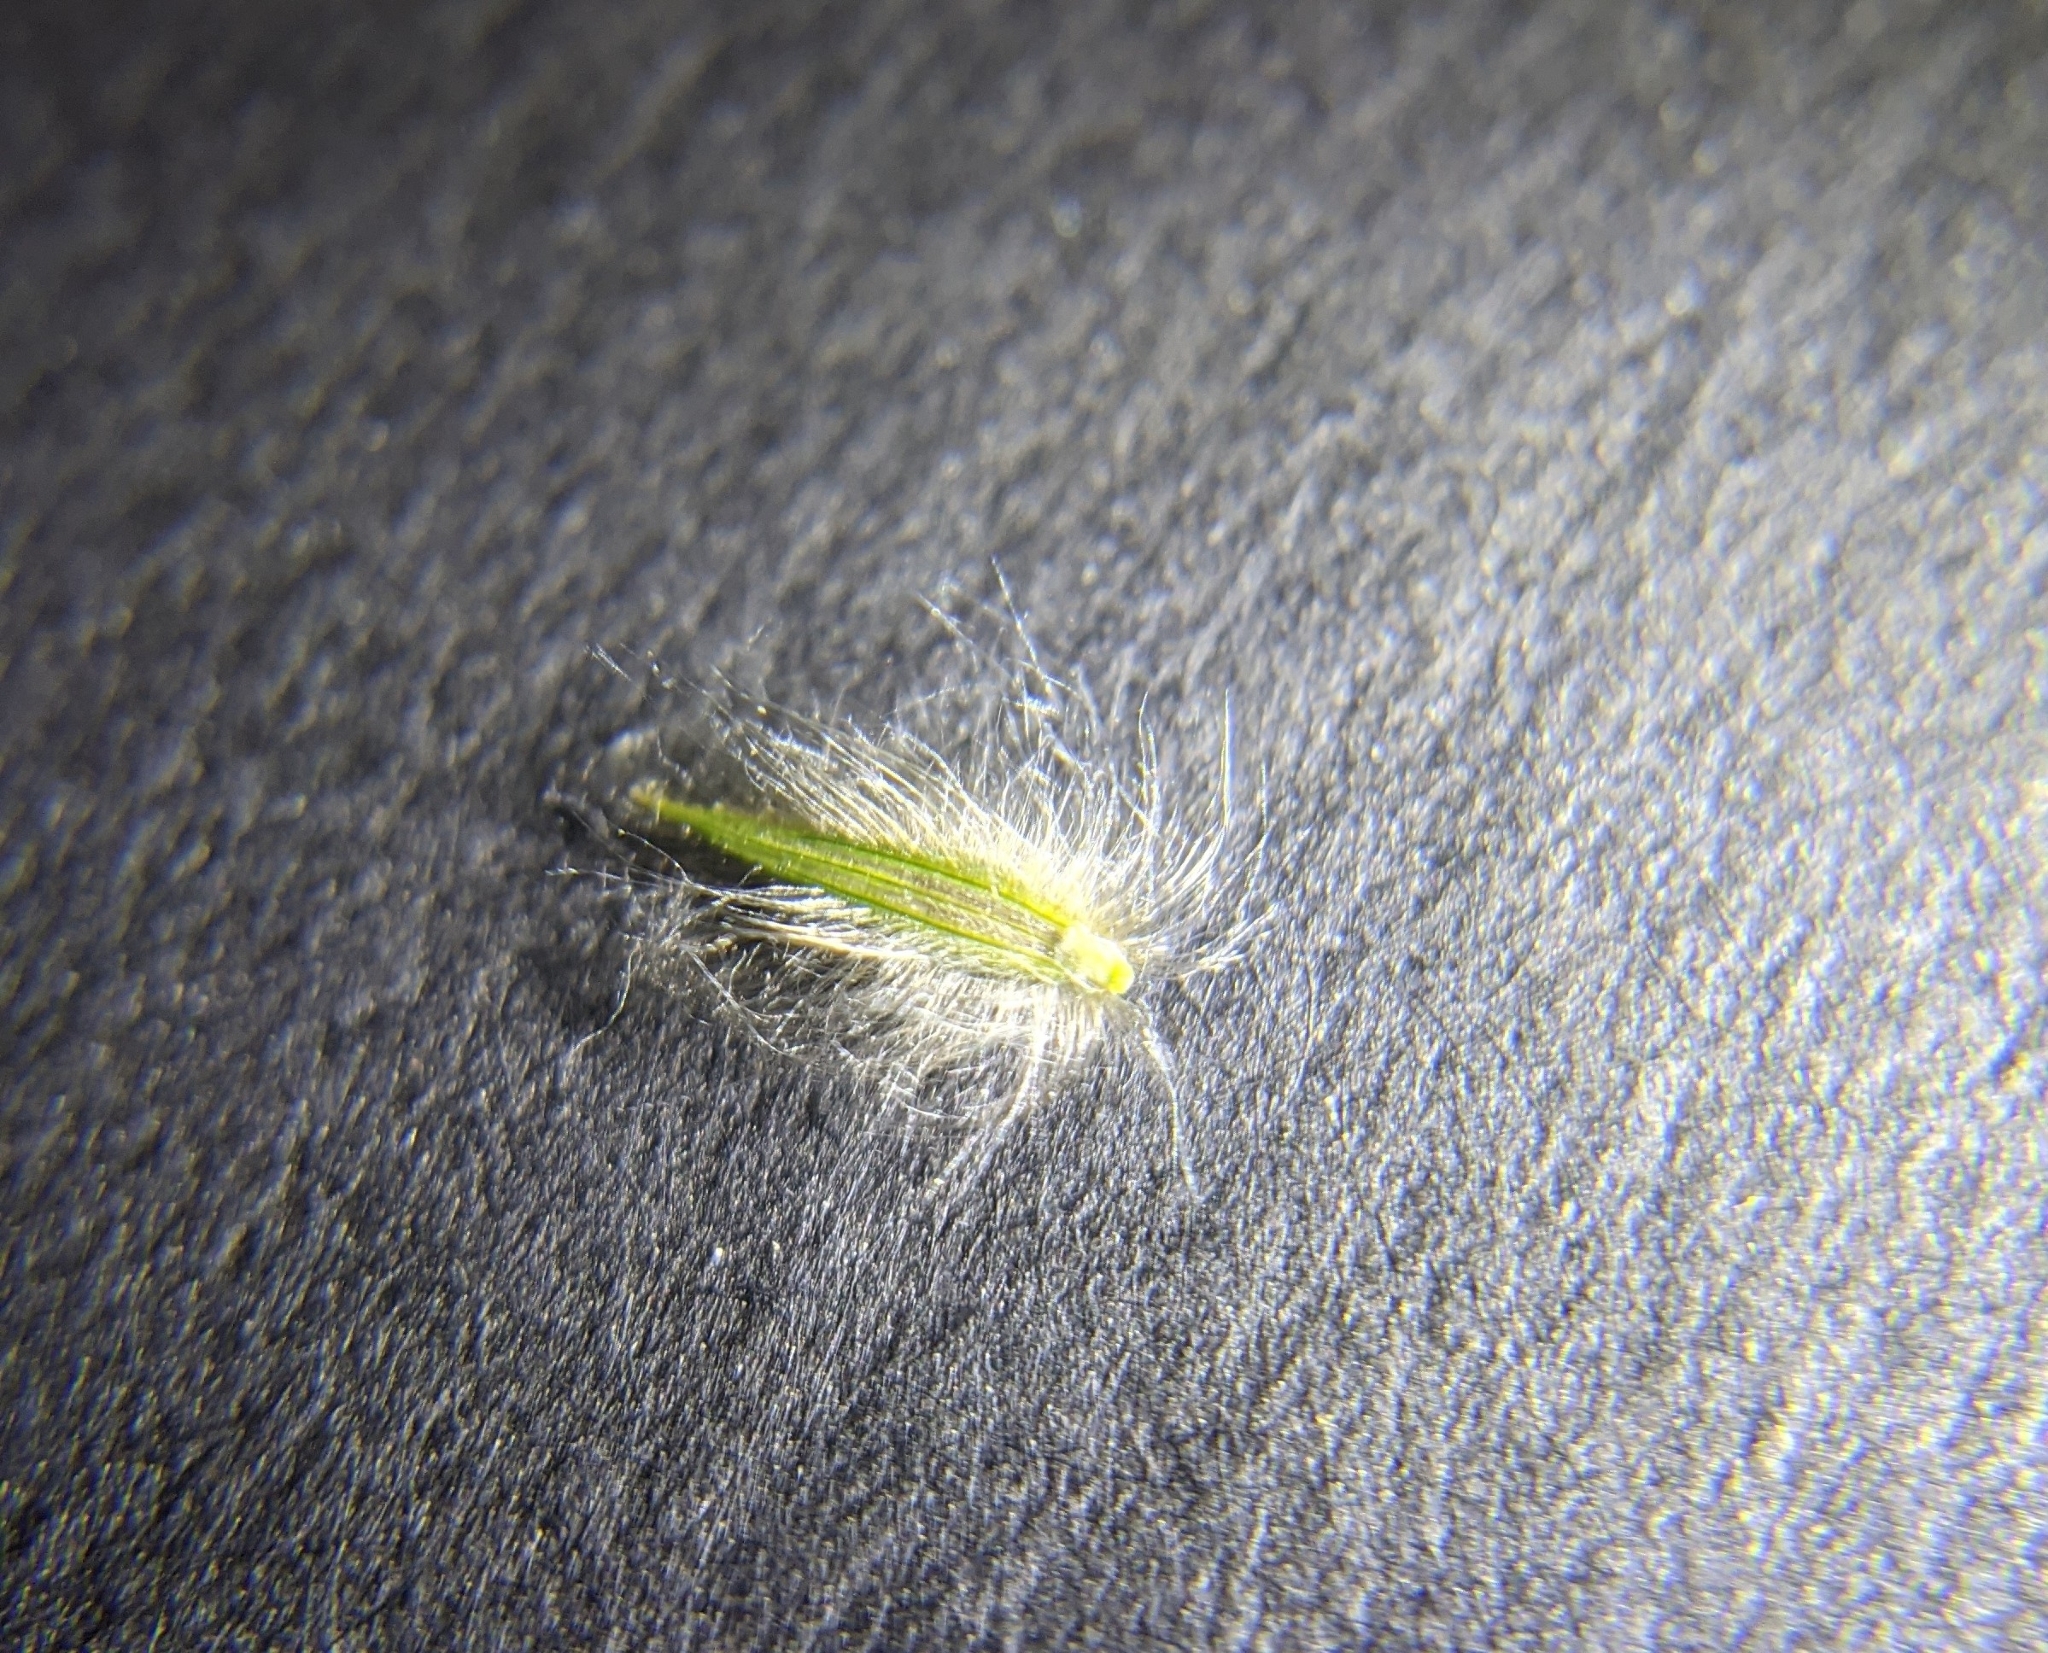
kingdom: Plantae
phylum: Tracheophyta
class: Liliopsida
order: Poales
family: Poaceae
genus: Digitaria
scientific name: Digitaria californica
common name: Arizona cottontop
